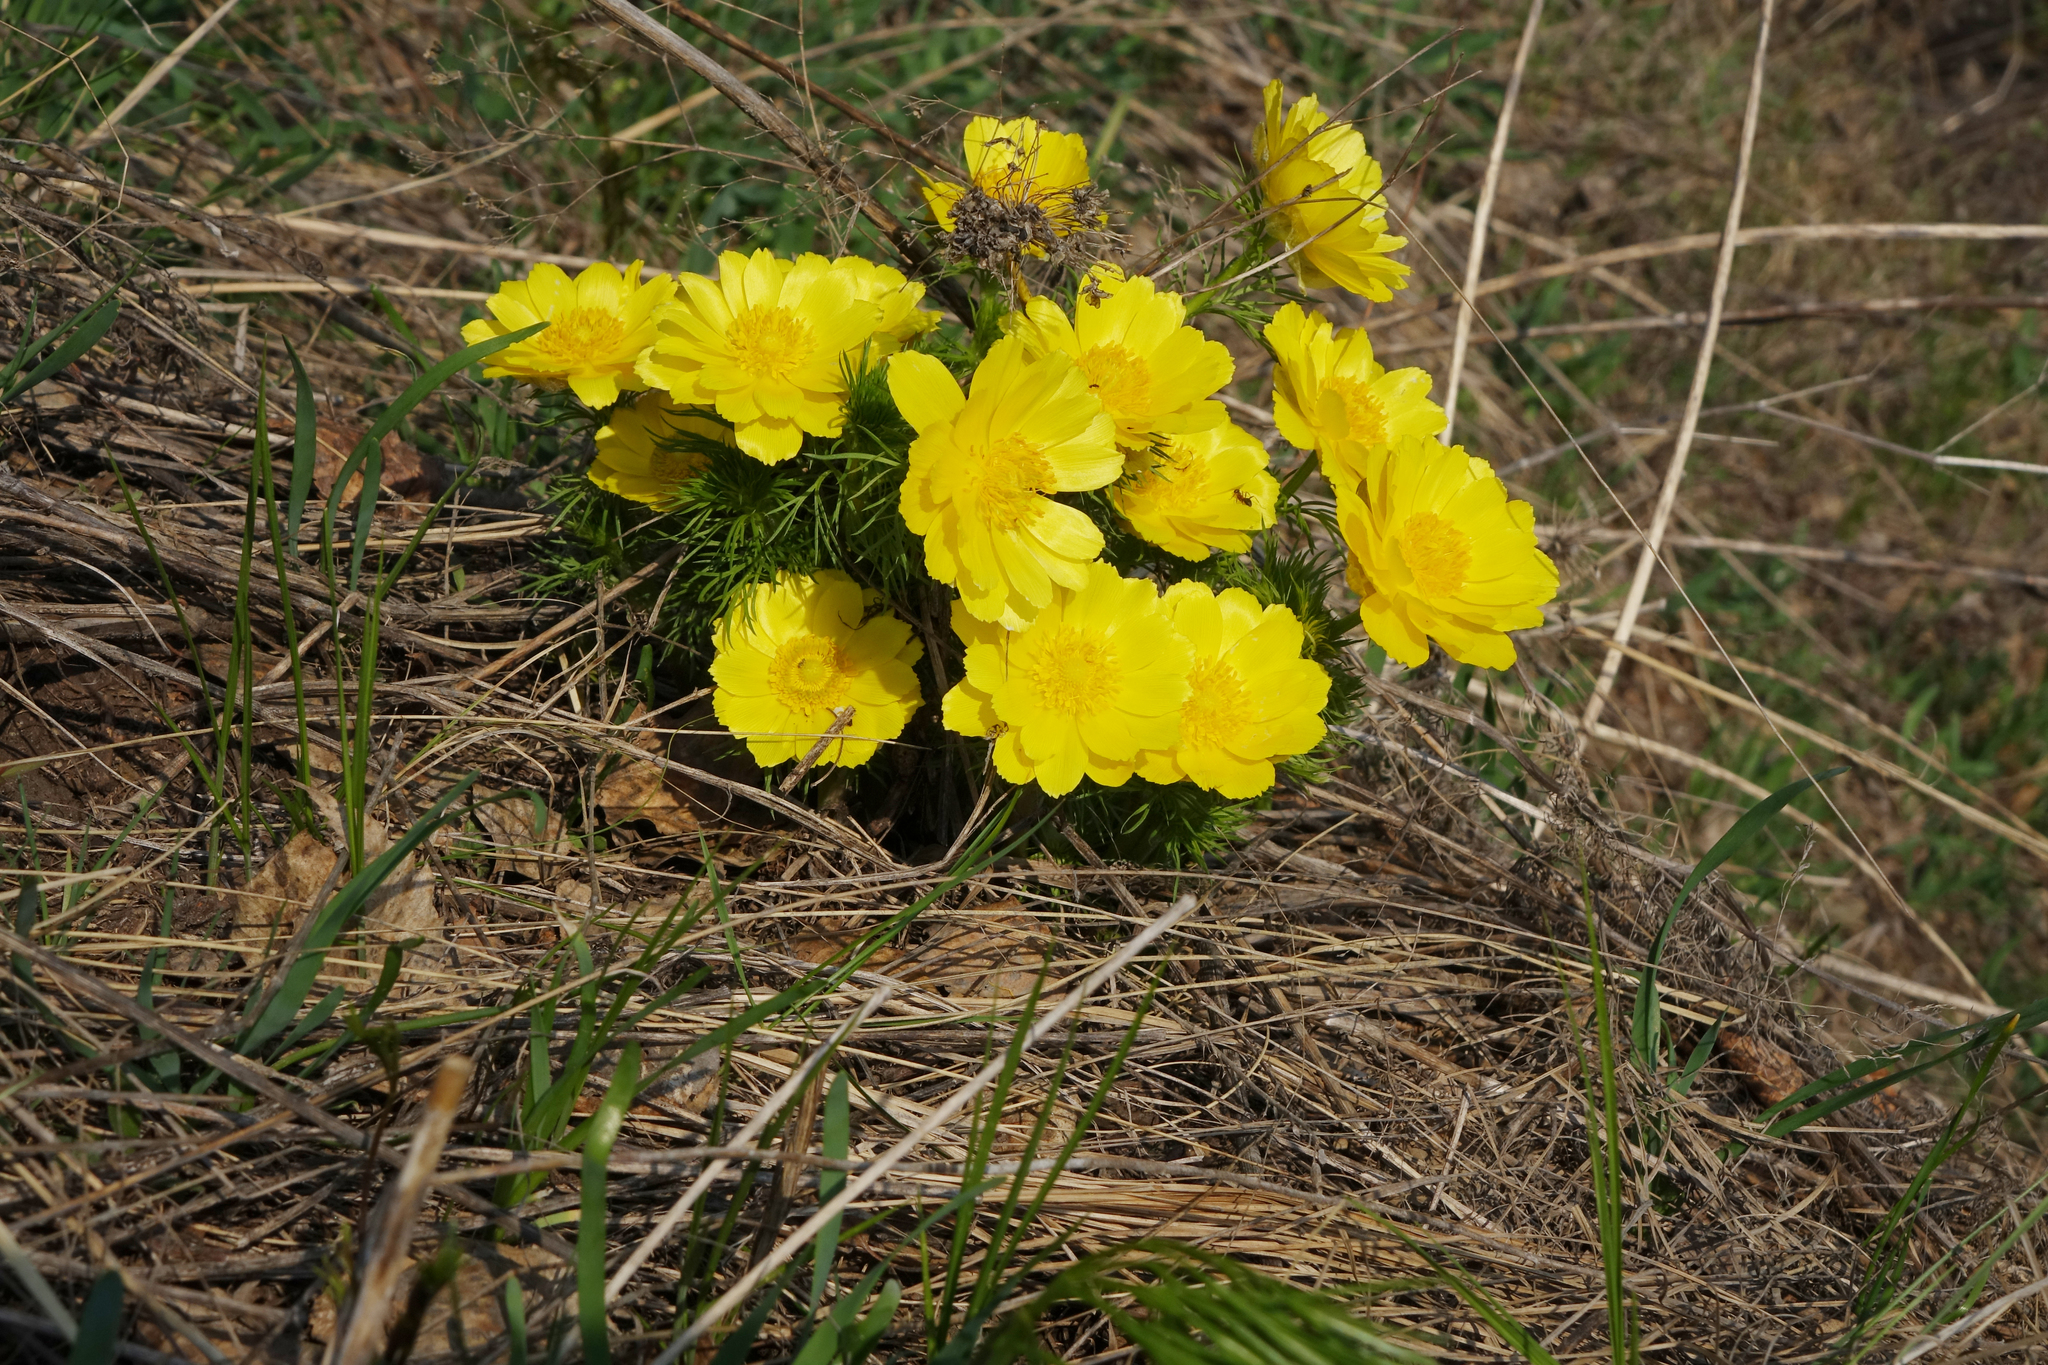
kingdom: Plantae
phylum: Tracheophyta
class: Magnoliopsida
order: Ranunculales
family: Ranunculaceae
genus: Adonis
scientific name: Adonis vernalis
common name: Yellow pheasants-eye
